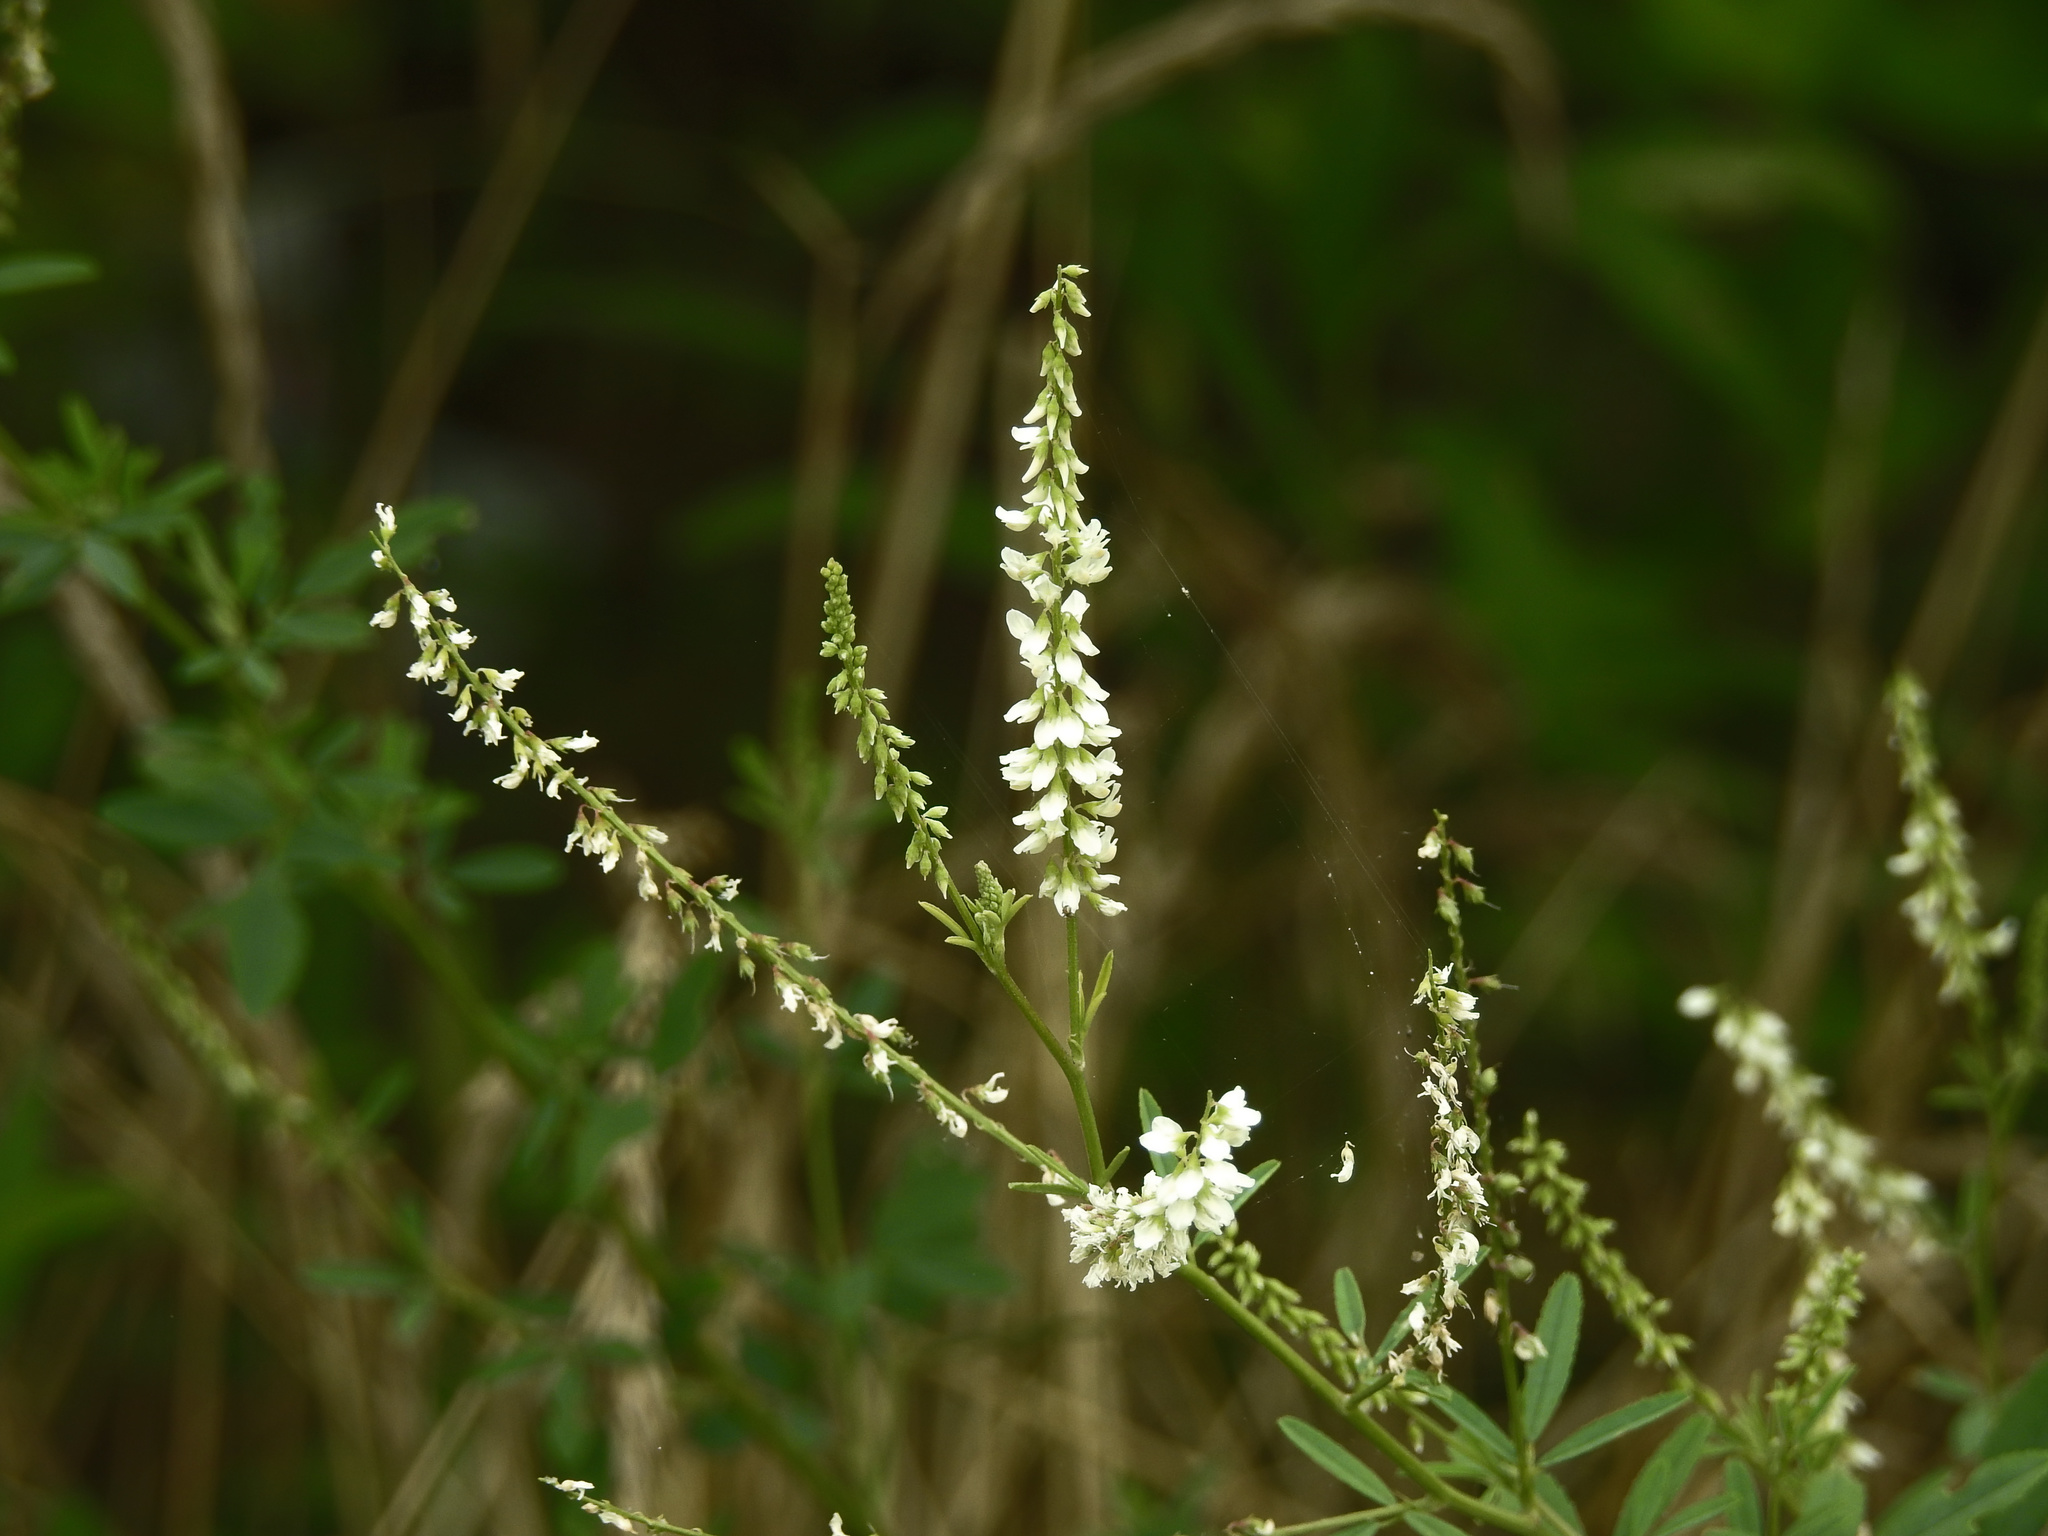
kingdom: Plantae
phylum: Tracheophyta
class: Magnoliopsida
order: Fabales
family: Fabaceae
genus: Melilotus
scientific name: Melilotus albus
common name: White melilot
